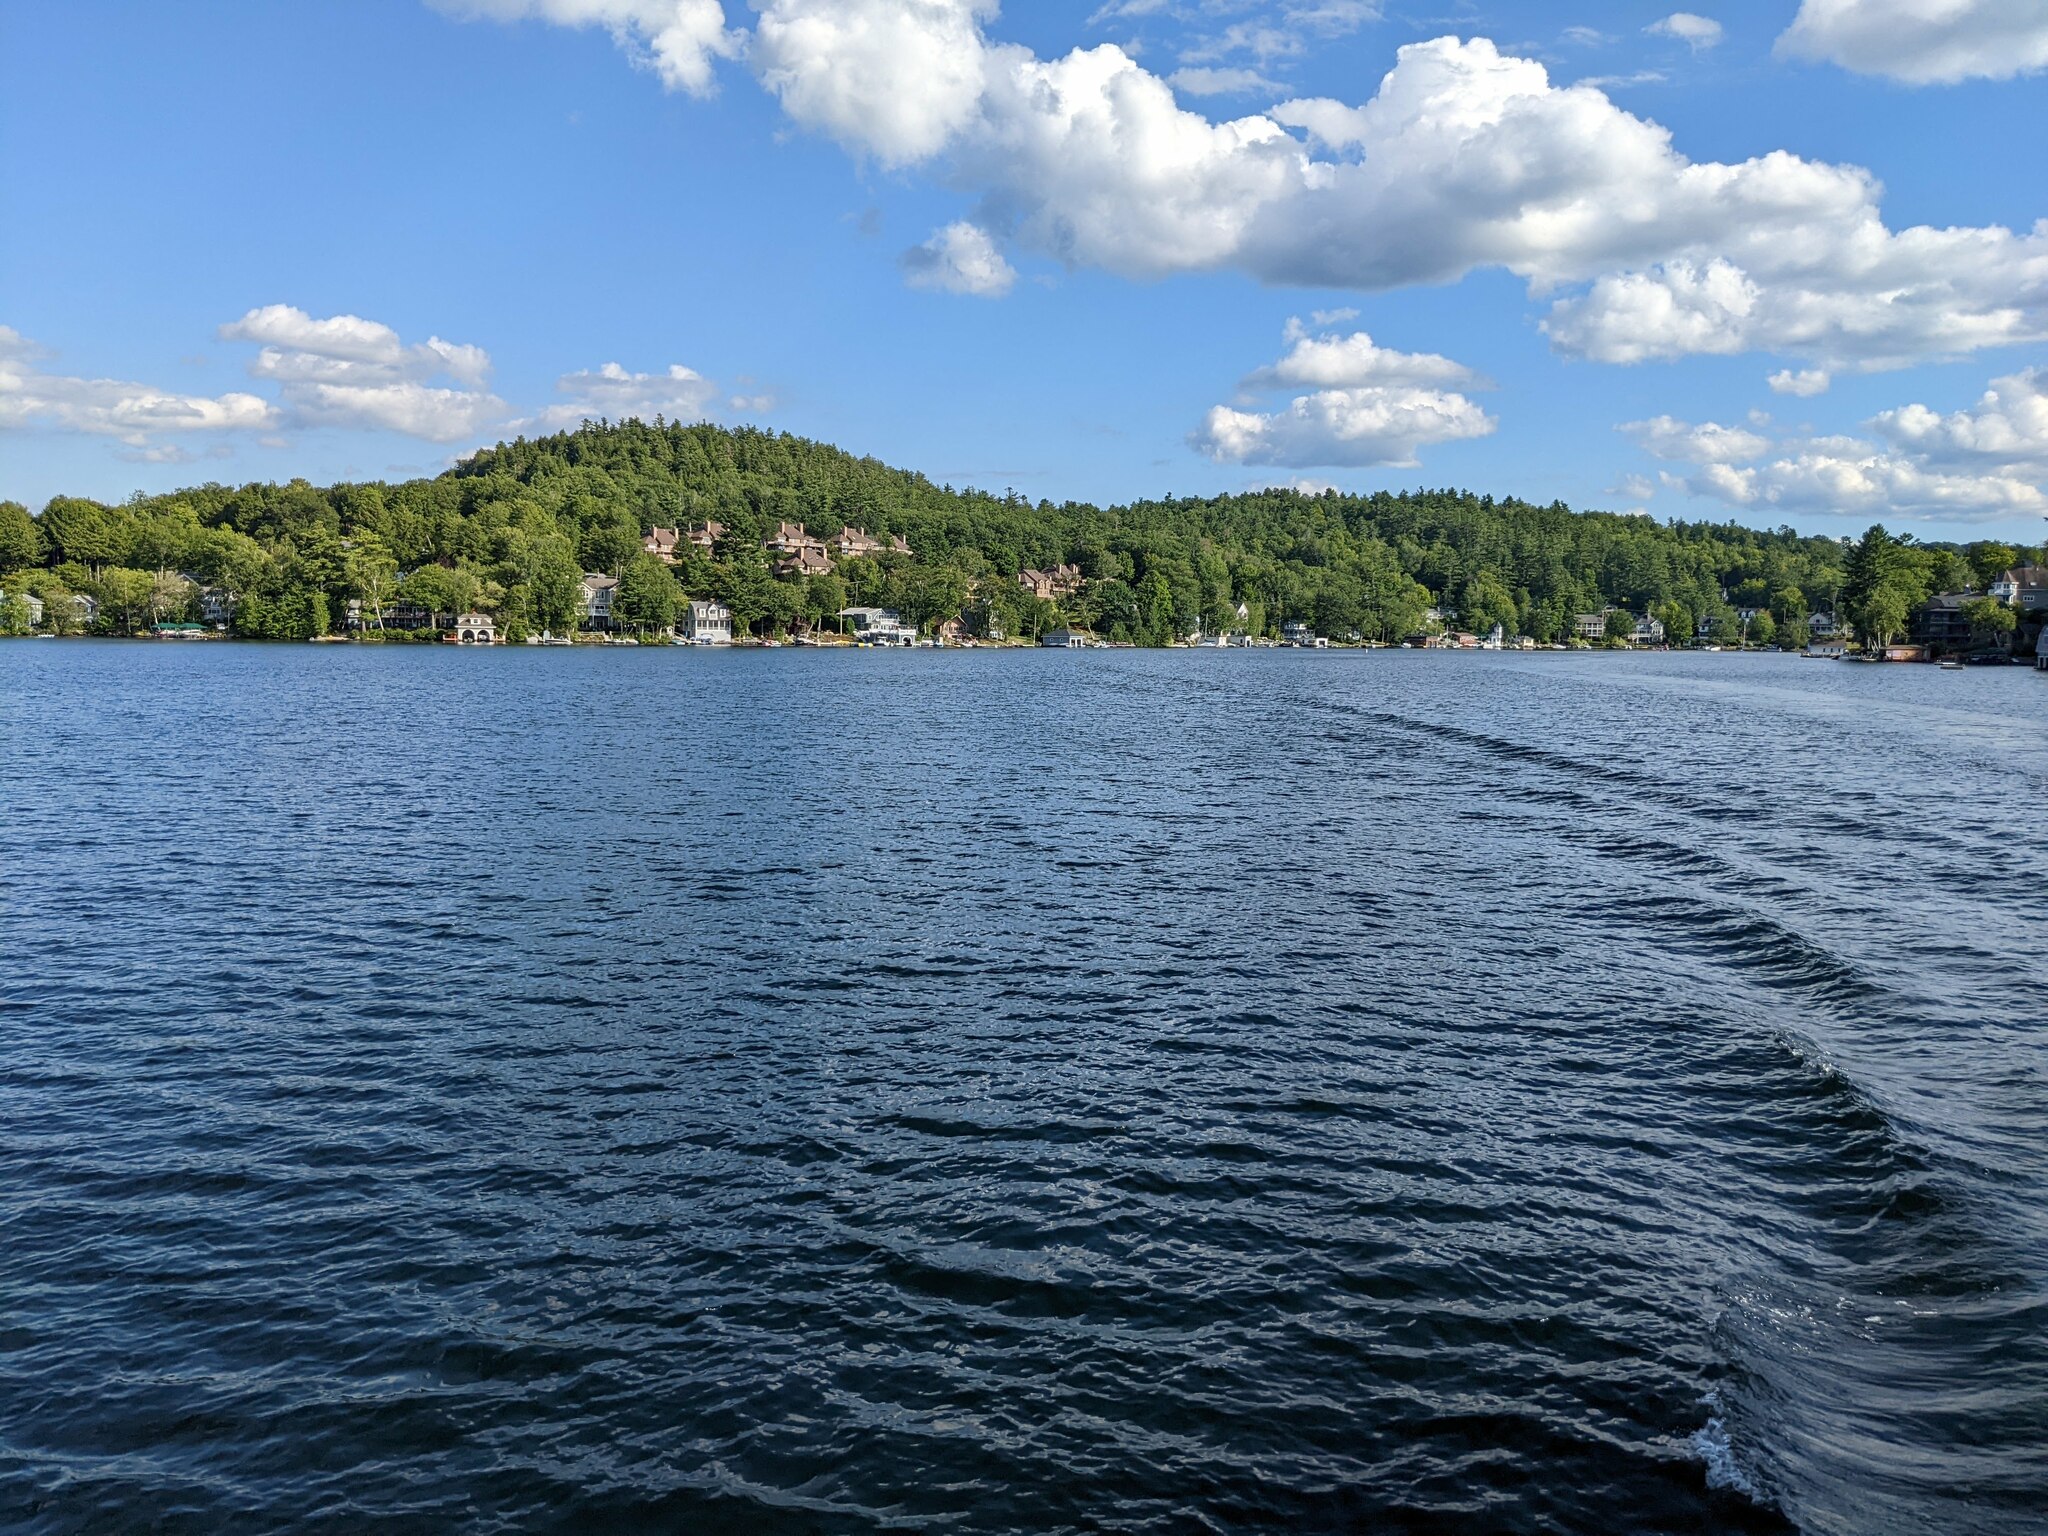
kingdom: Plantae
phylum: Tracheophyta
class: Pinopsida
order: Pinales
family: Pinaceae
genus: Pinus
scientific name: Pinus strobus
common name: Weymouth pine
